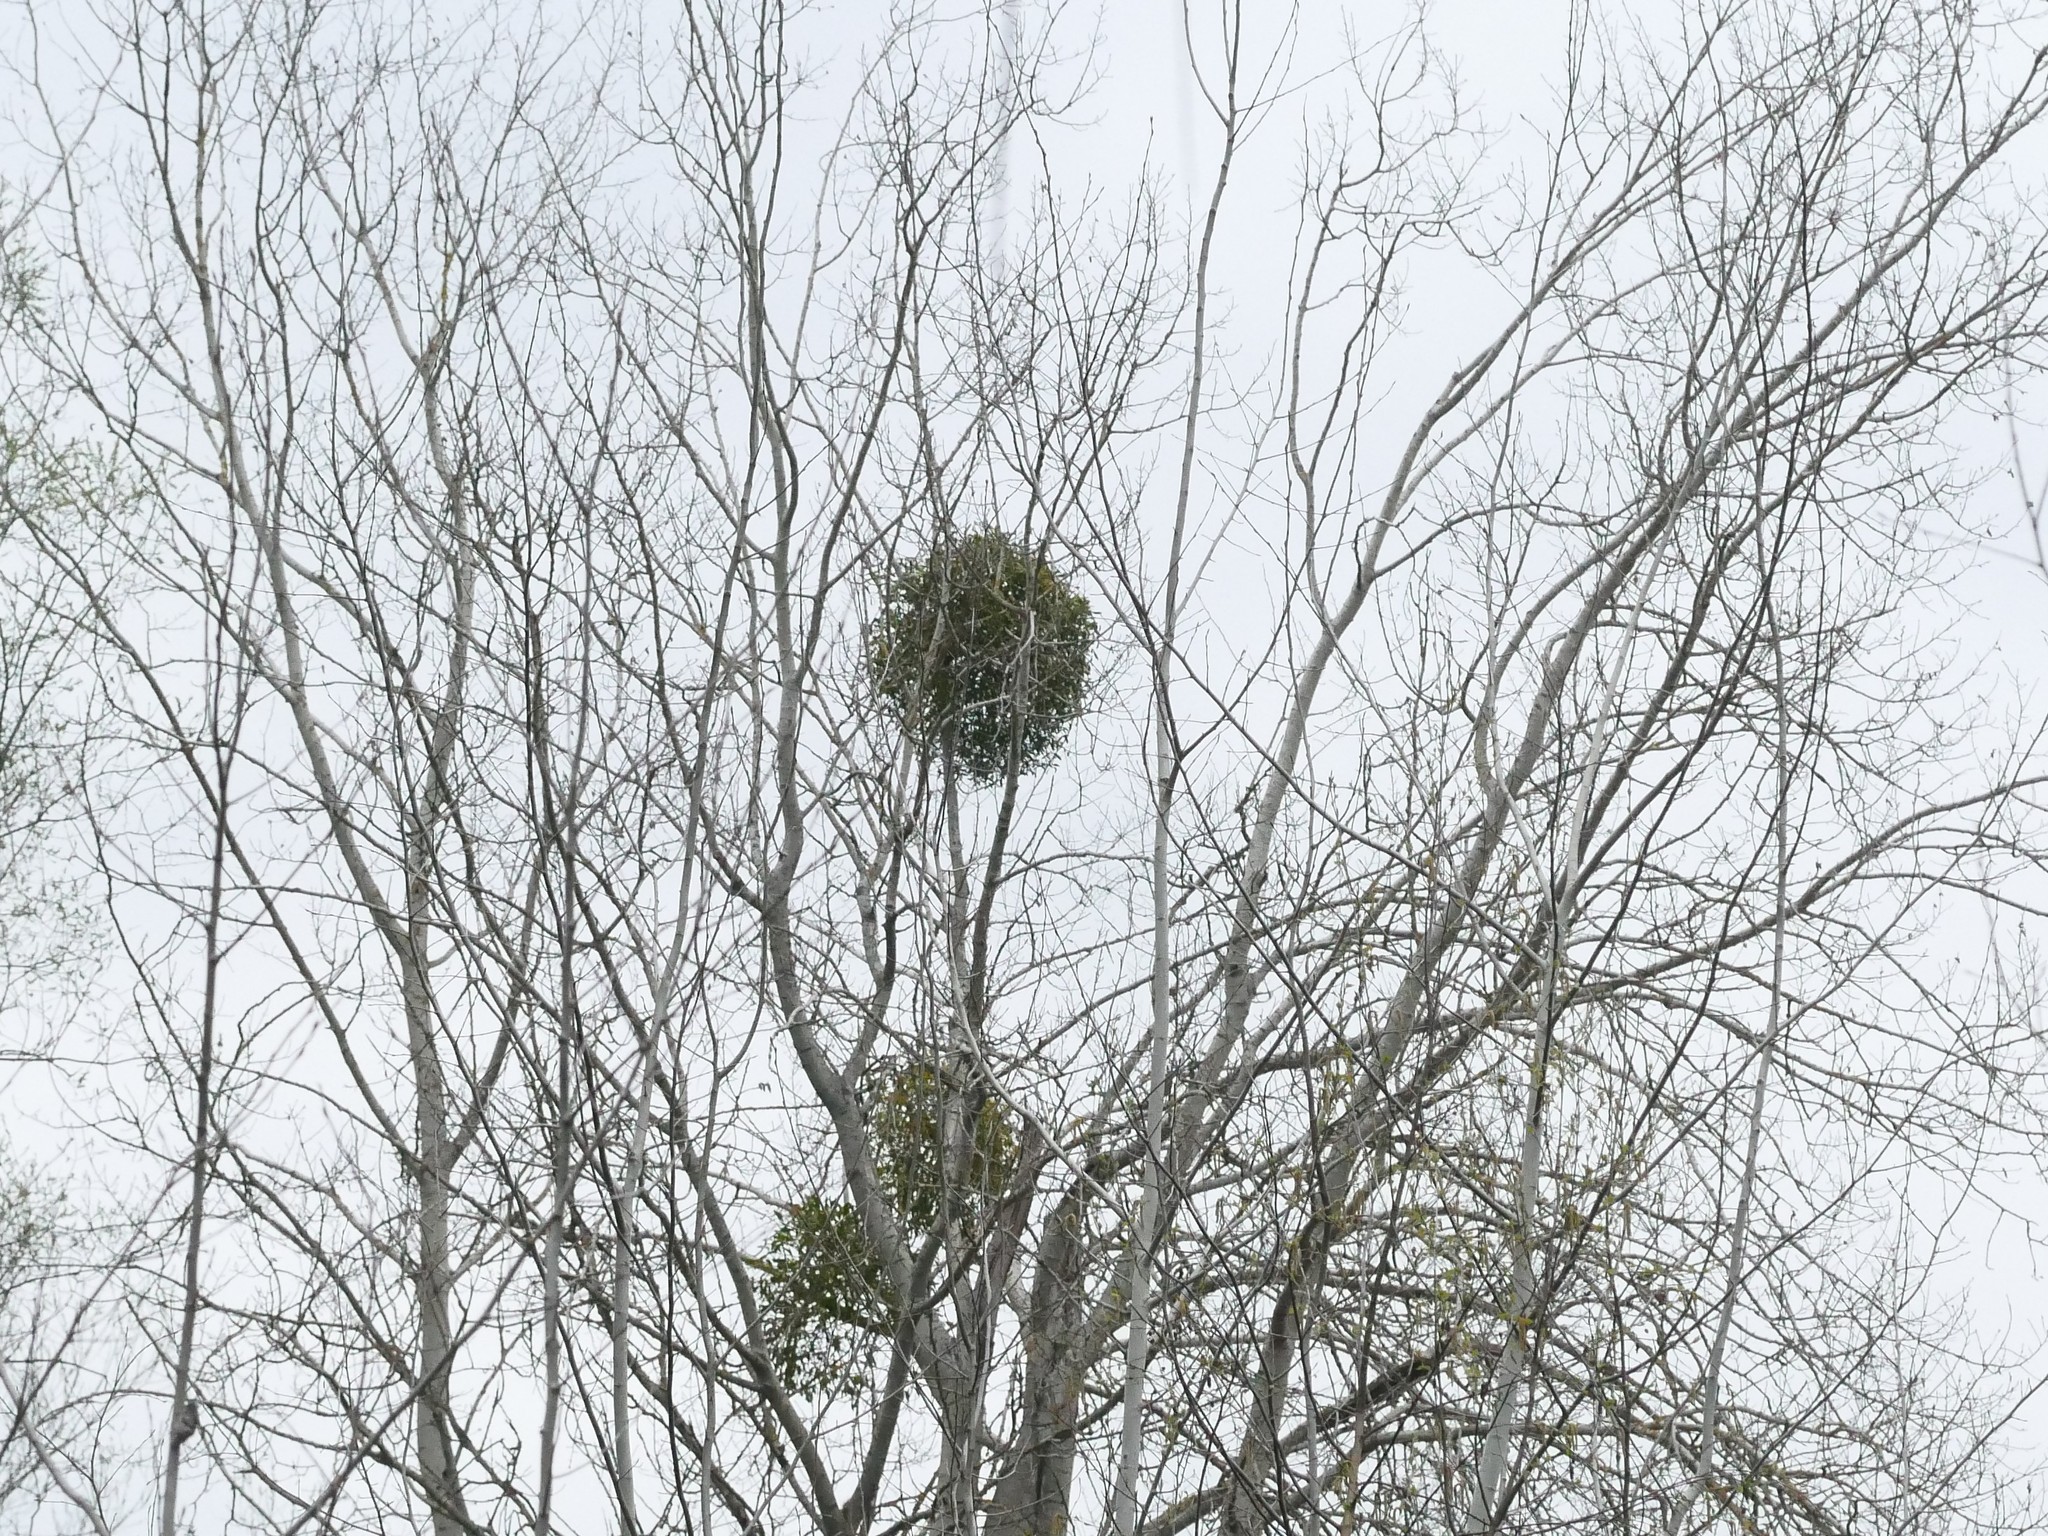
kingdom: Plantae
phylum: Tracheophyta
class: Magnoliopsida
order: Santalales
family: Viscaceae
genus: Viscum
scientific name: Viscum album
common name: Mistletoe
